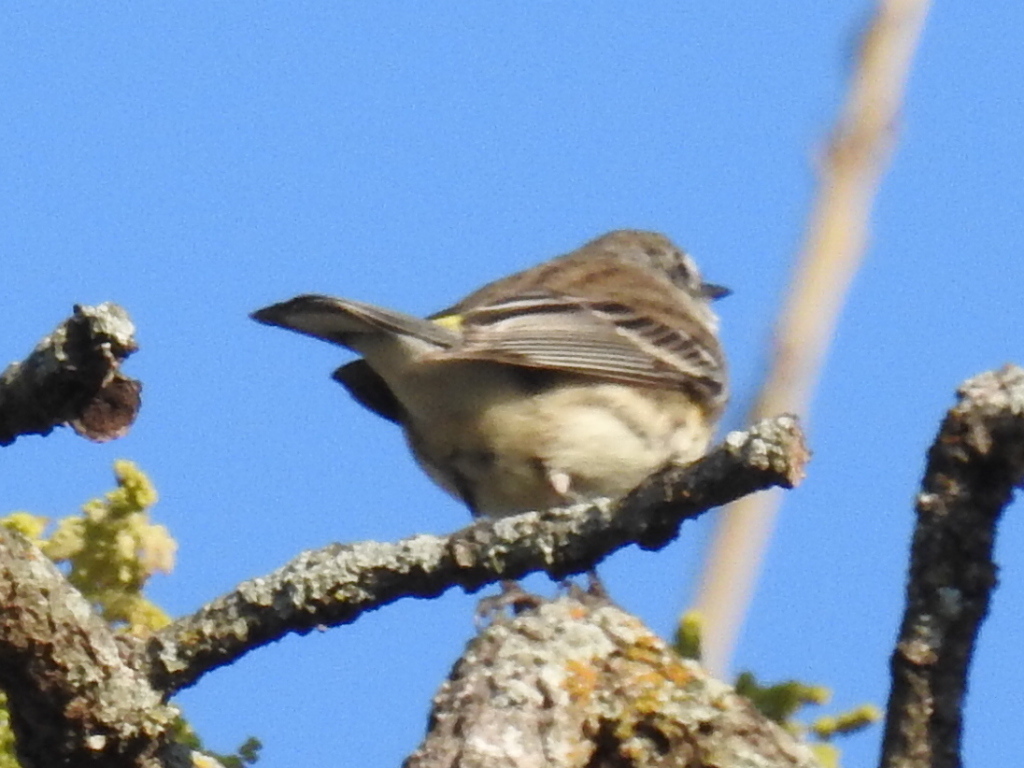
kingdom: Animalia
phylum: Chordata
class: Aves
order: Passeriformes
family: Parulidae
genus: Setophaga
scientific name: Setophaga coronata
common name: Myrtle warbler
